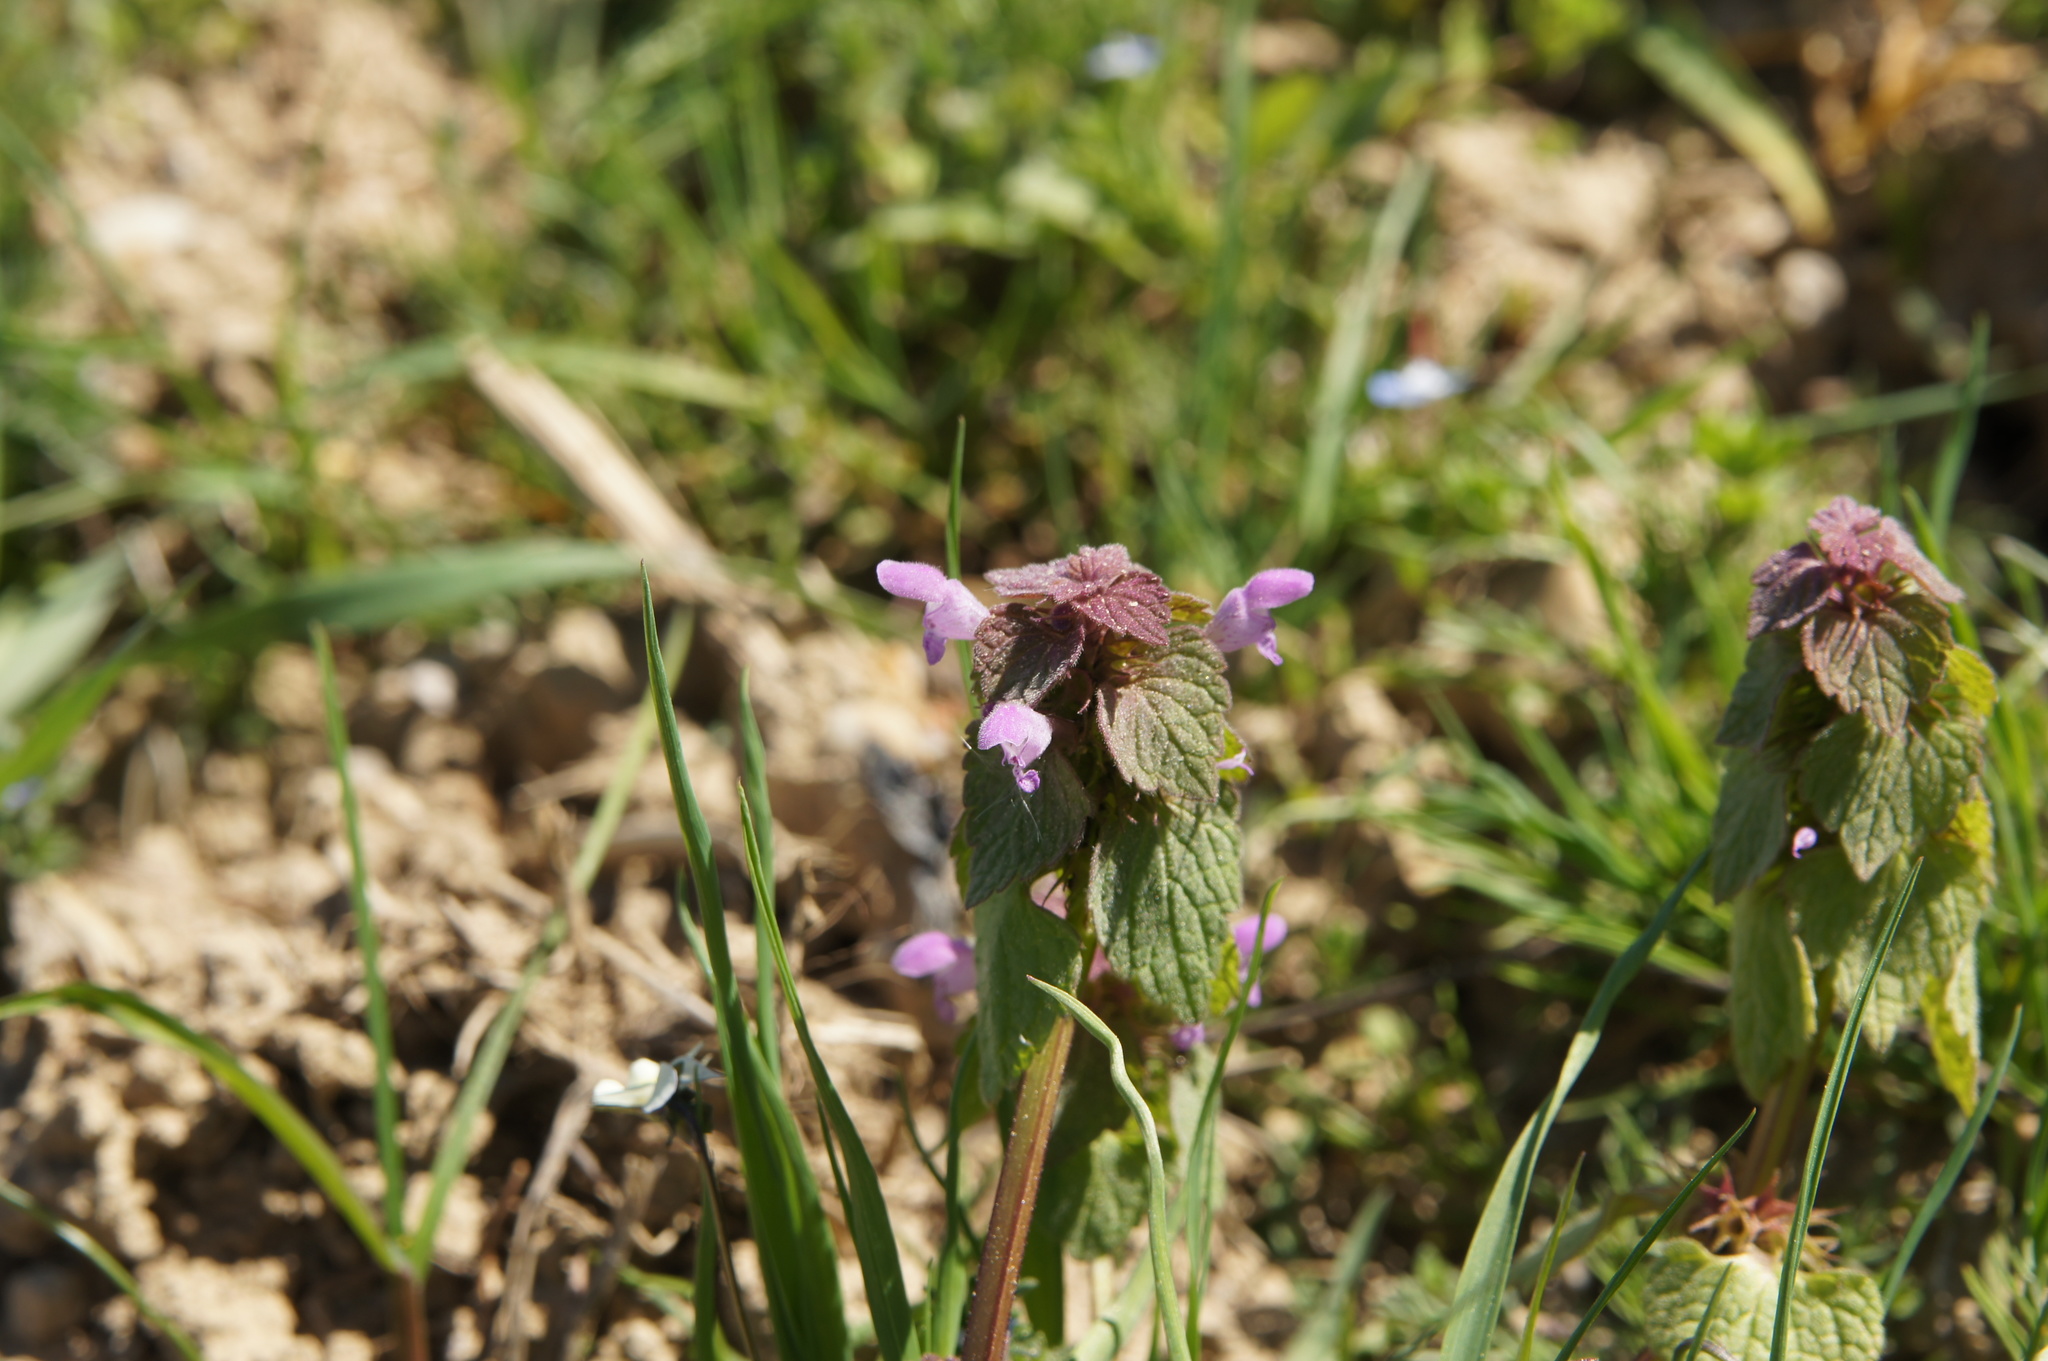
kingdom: Plantae
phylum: Tracheophyta
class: Magnoliopsida
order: Lamiales
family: Lamiaceae
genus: Lamium
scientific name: Lamium purpureum
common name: Red dead-nettle
